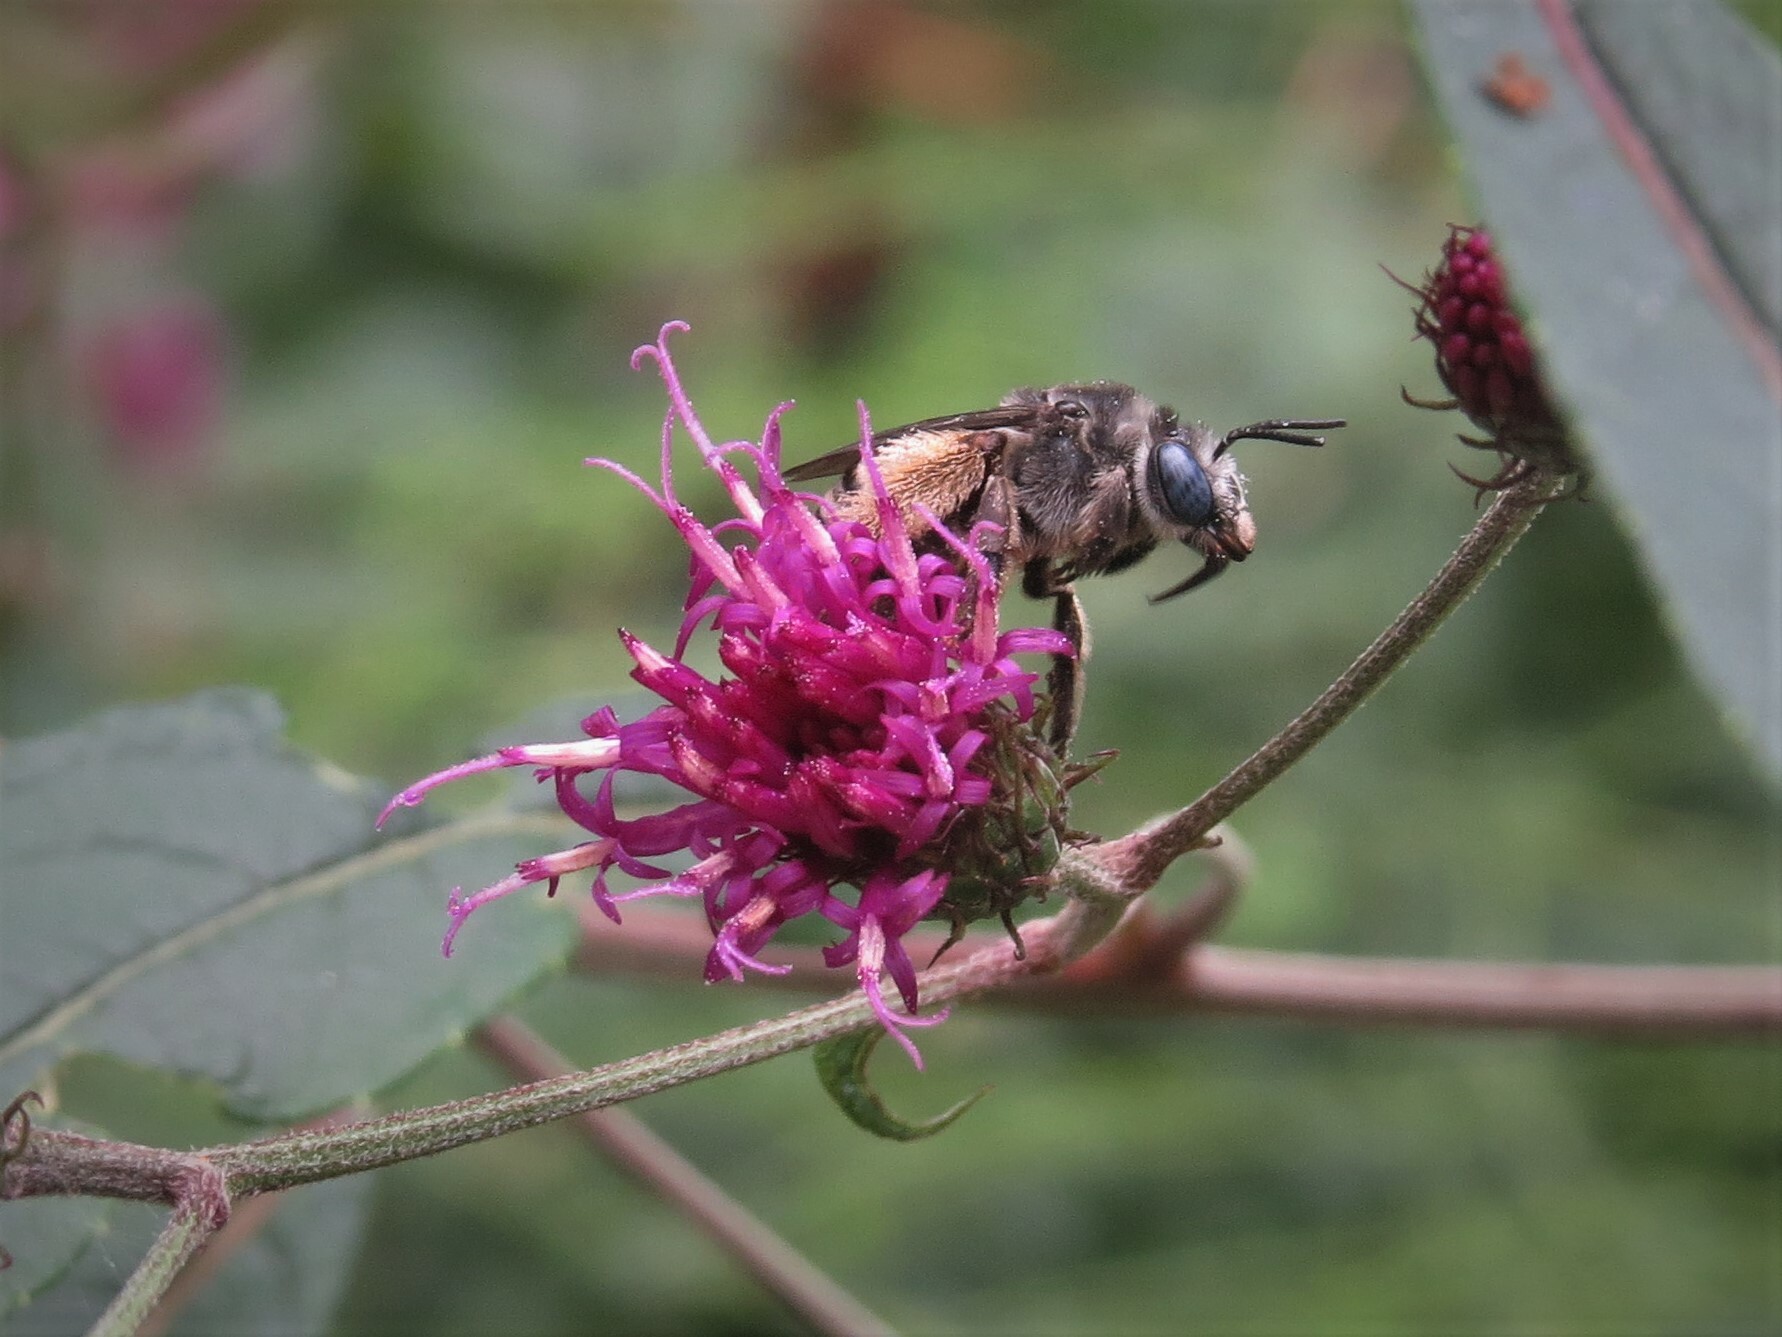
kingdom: Animalia
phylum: Arthropoda
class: Insecta
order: Hymenoptera
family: Apidae
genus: Melissodes
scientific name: Melissodes denticulatus
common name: Denticulate long-horned bee
